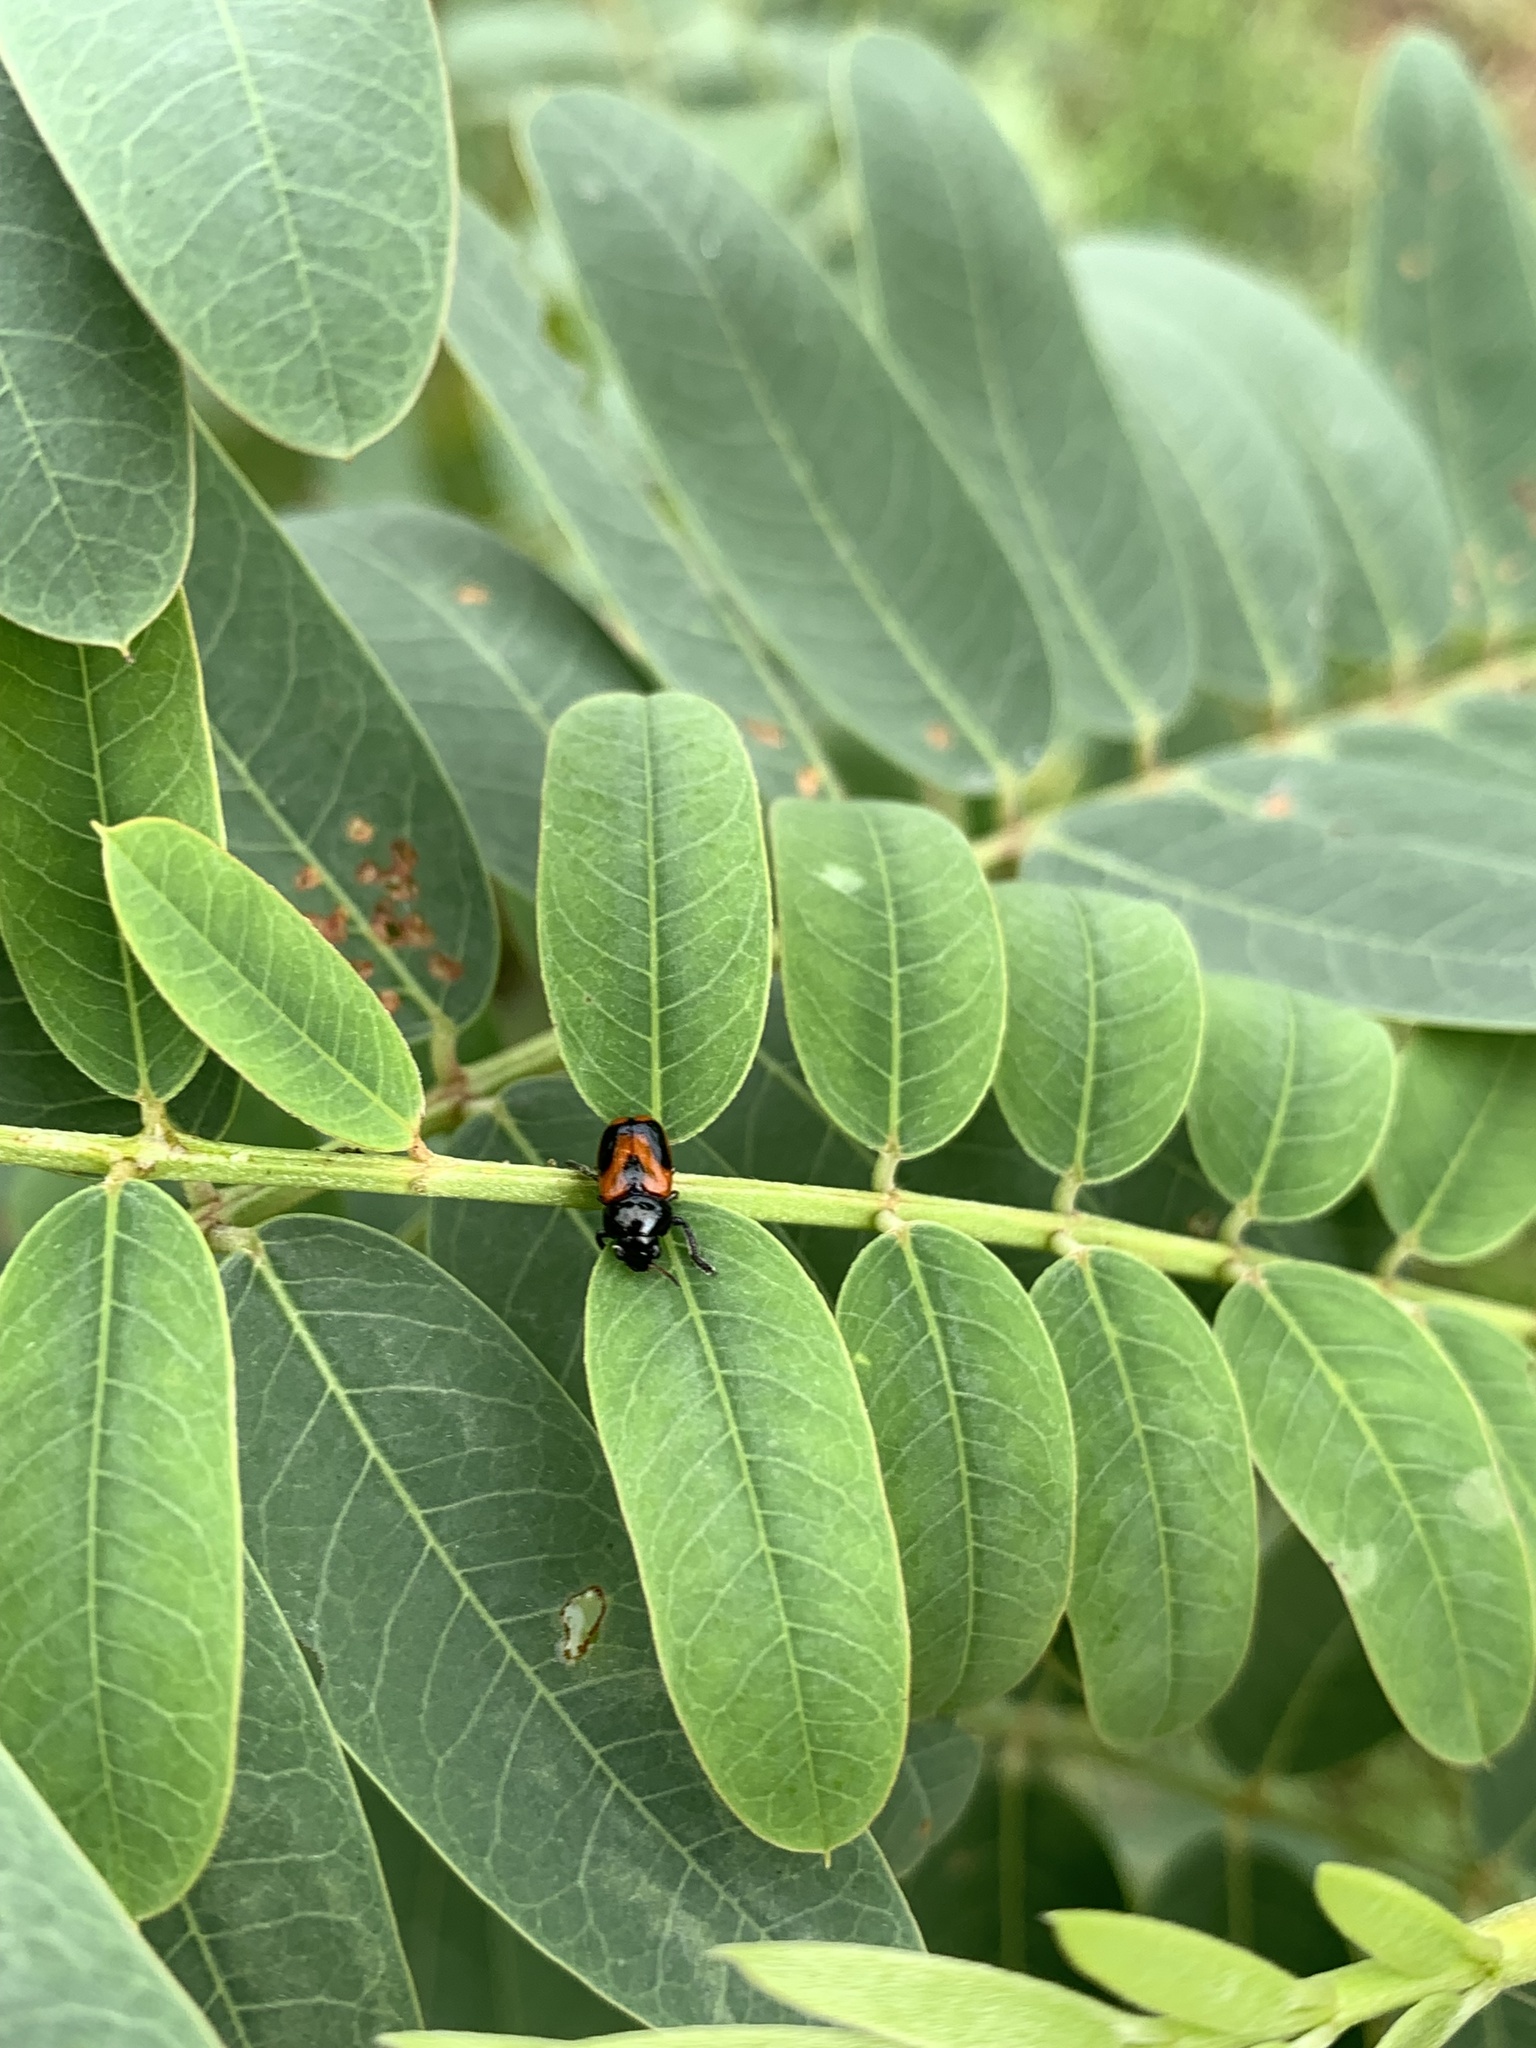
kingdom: Animalia
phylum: Arthropoda
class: Insecta
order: Coleoptera
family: Chrysomelidae
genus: Temnodachrys
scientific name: Temnodachrys
